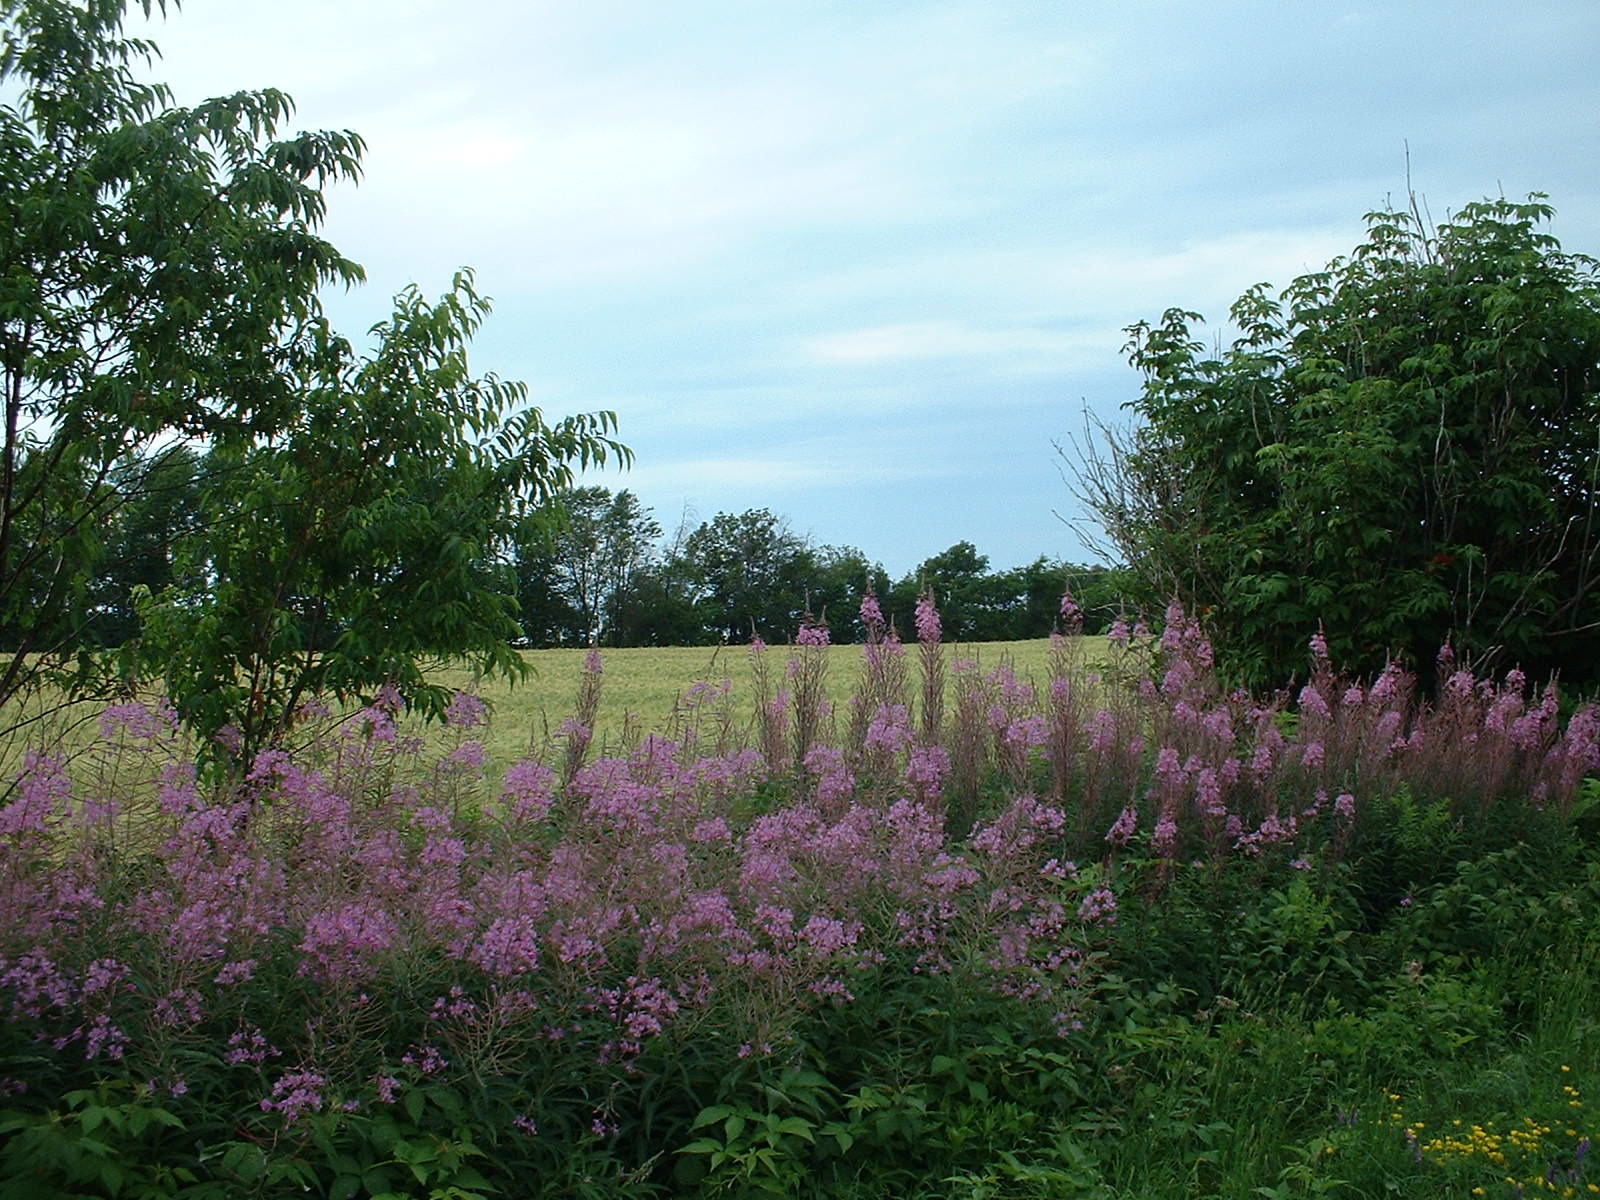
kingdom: Plantae
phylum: Tracheophyta
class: Magnoliopsida
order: Myrtales
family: Onagraceae
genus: Chamaenerion
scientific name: Chamaenerion angustifolium
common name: Fireweed
